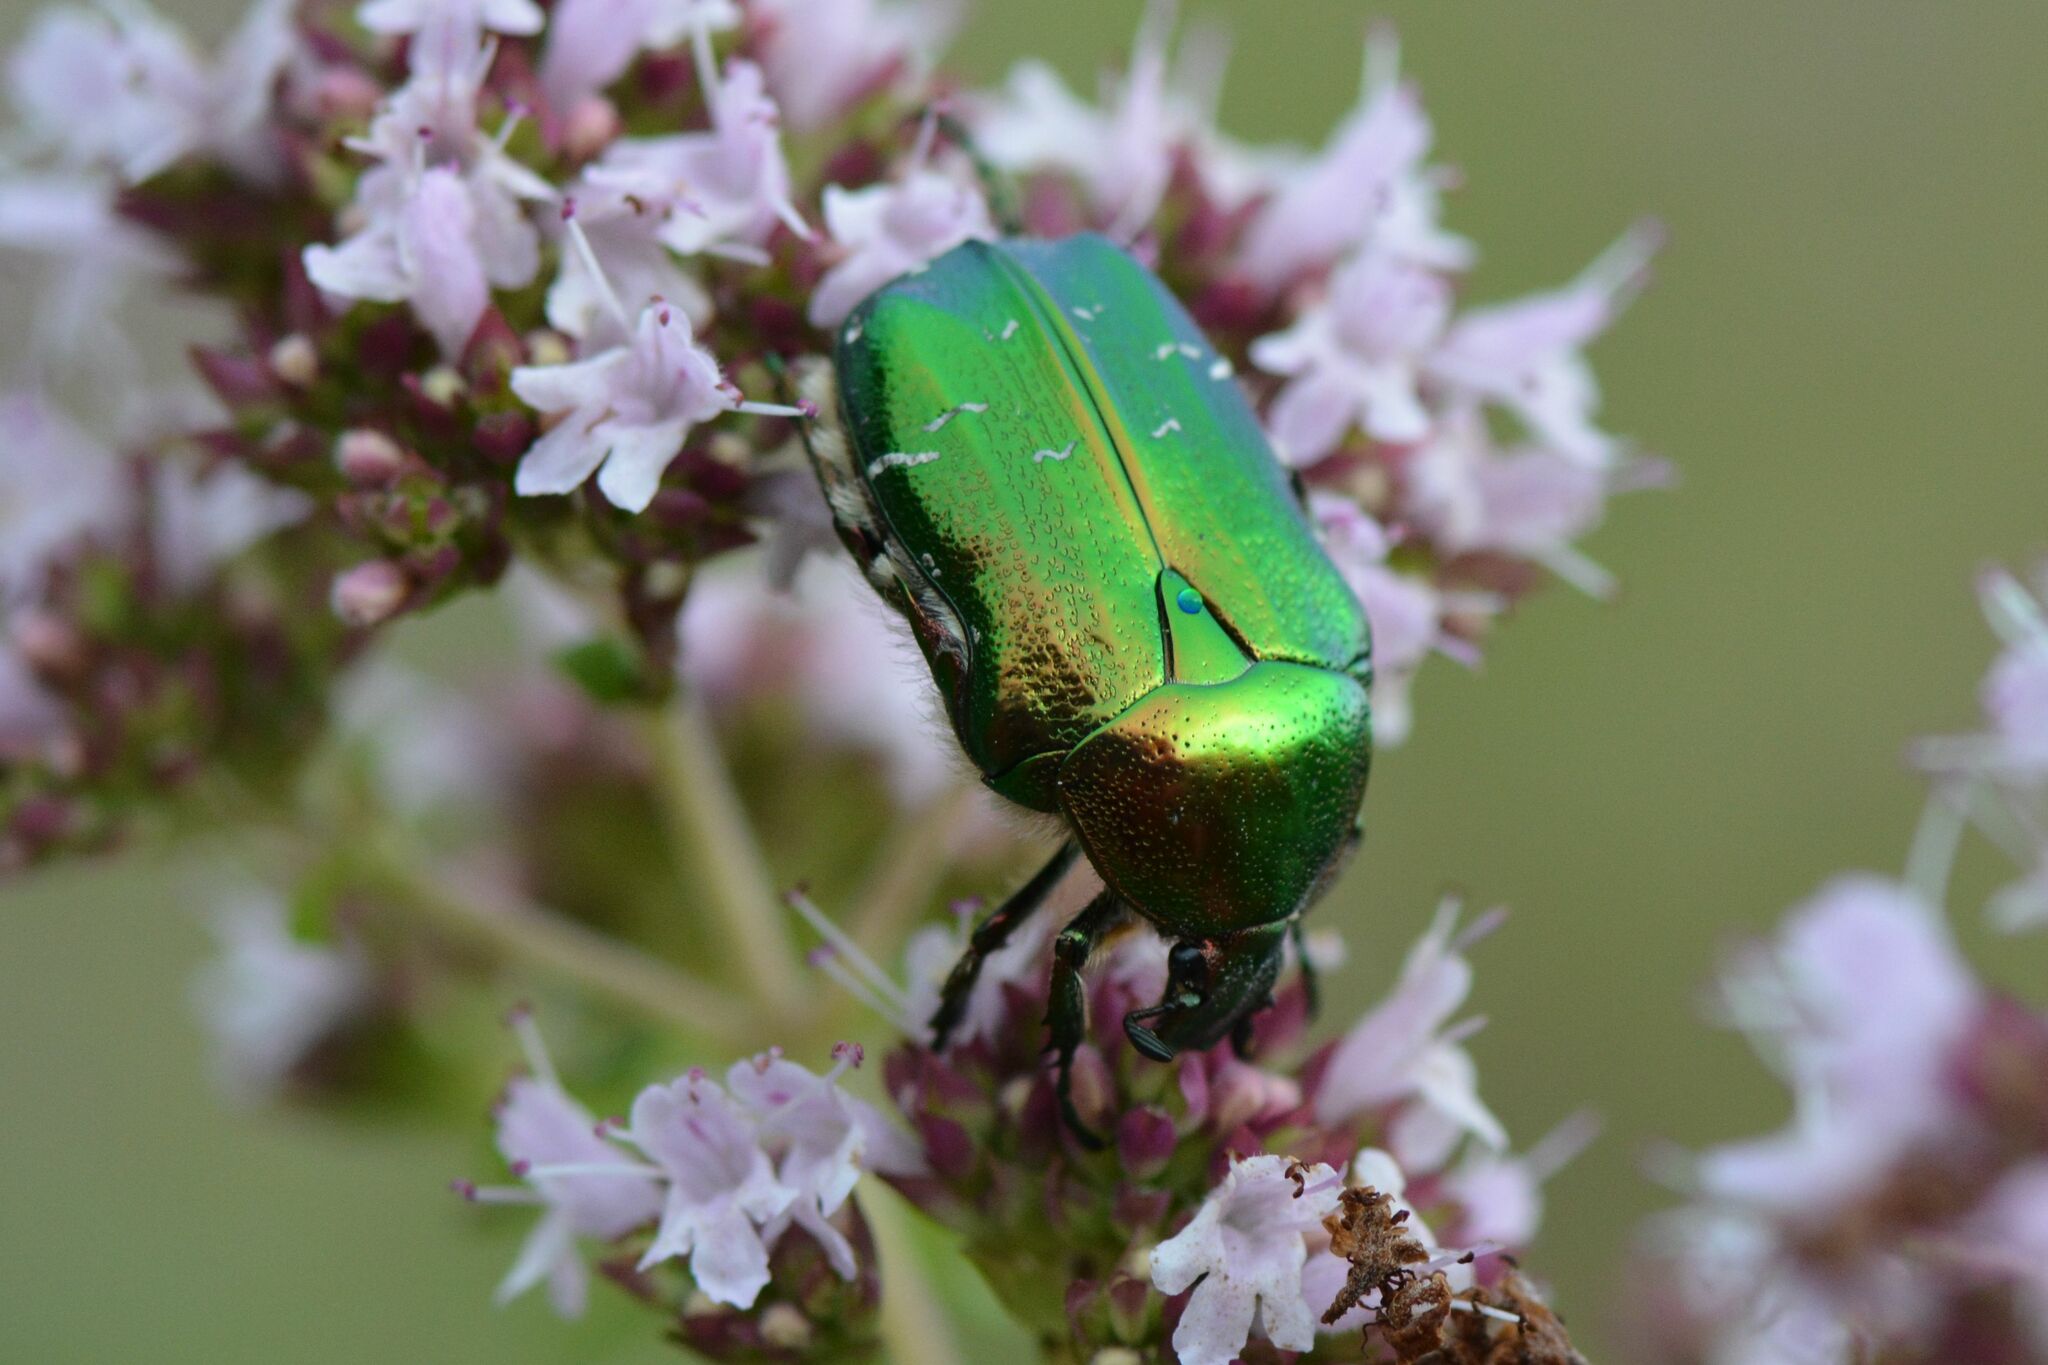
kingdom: Animalia
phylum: Arthropoda
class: Insecta
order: Coleoptera
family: Scarabaeidae
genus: Cetonia
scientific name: Cetonia aurata
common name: Rose chafer
